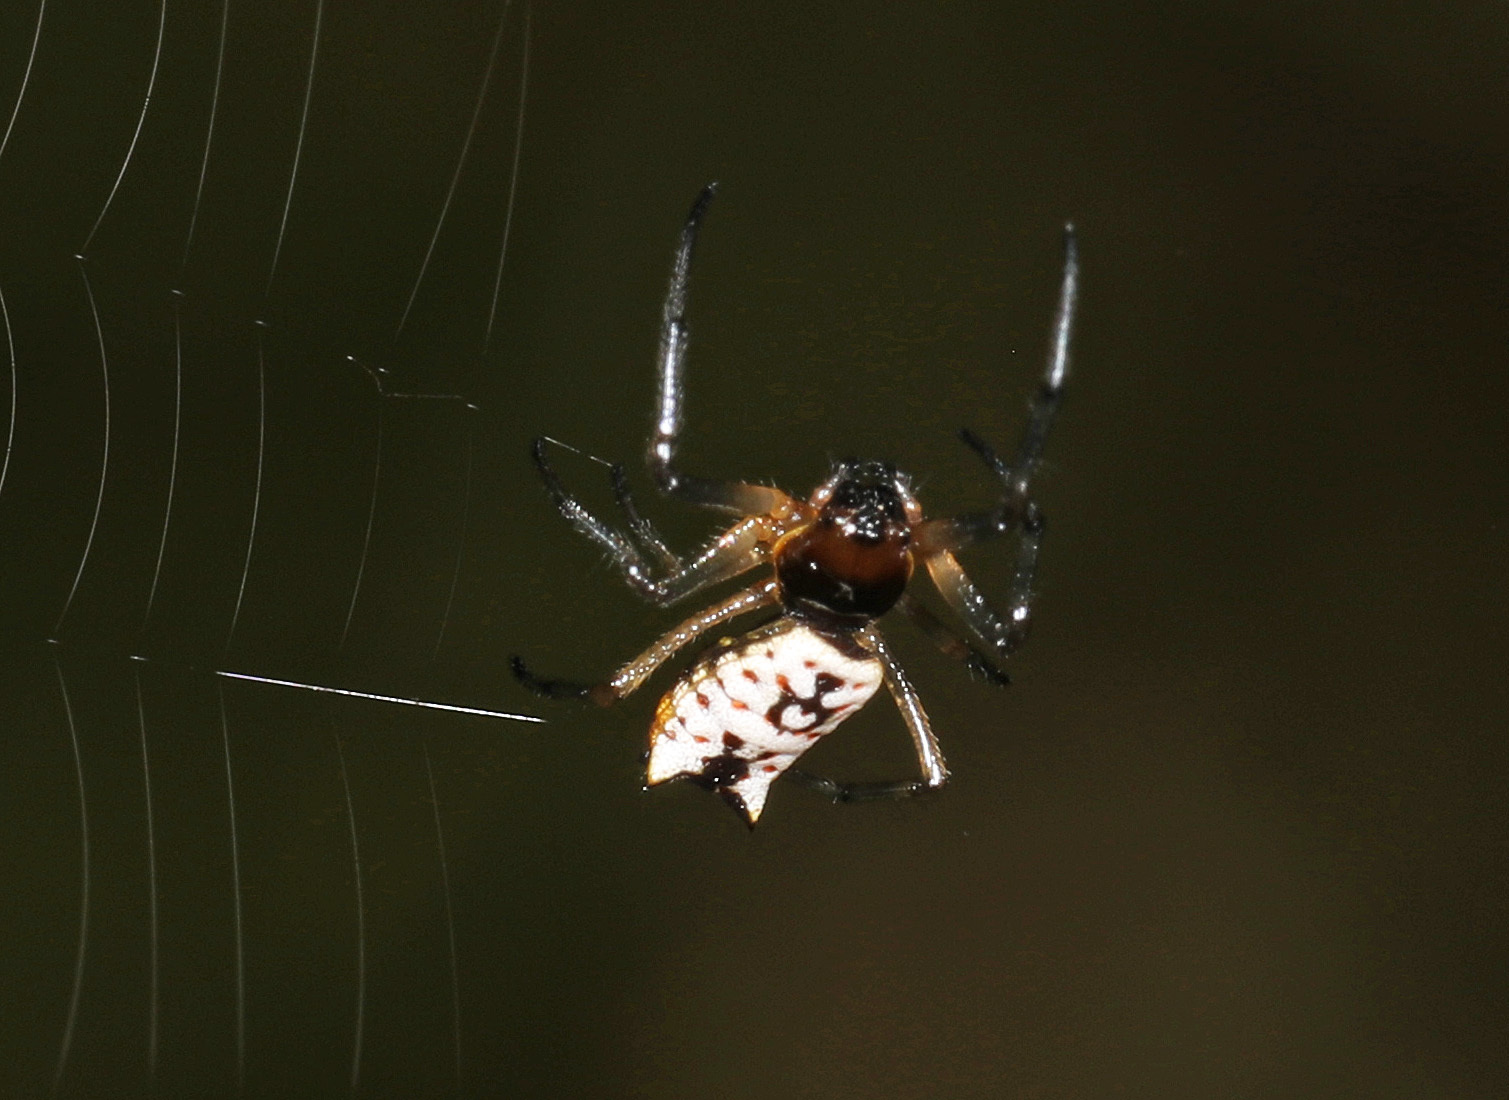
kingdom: Animalia
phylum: Arthropoda
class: Arachnida
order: Araneae
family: Araneidae
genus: Micrathena
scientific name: Micrathena mitrata
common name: Orb weavers
